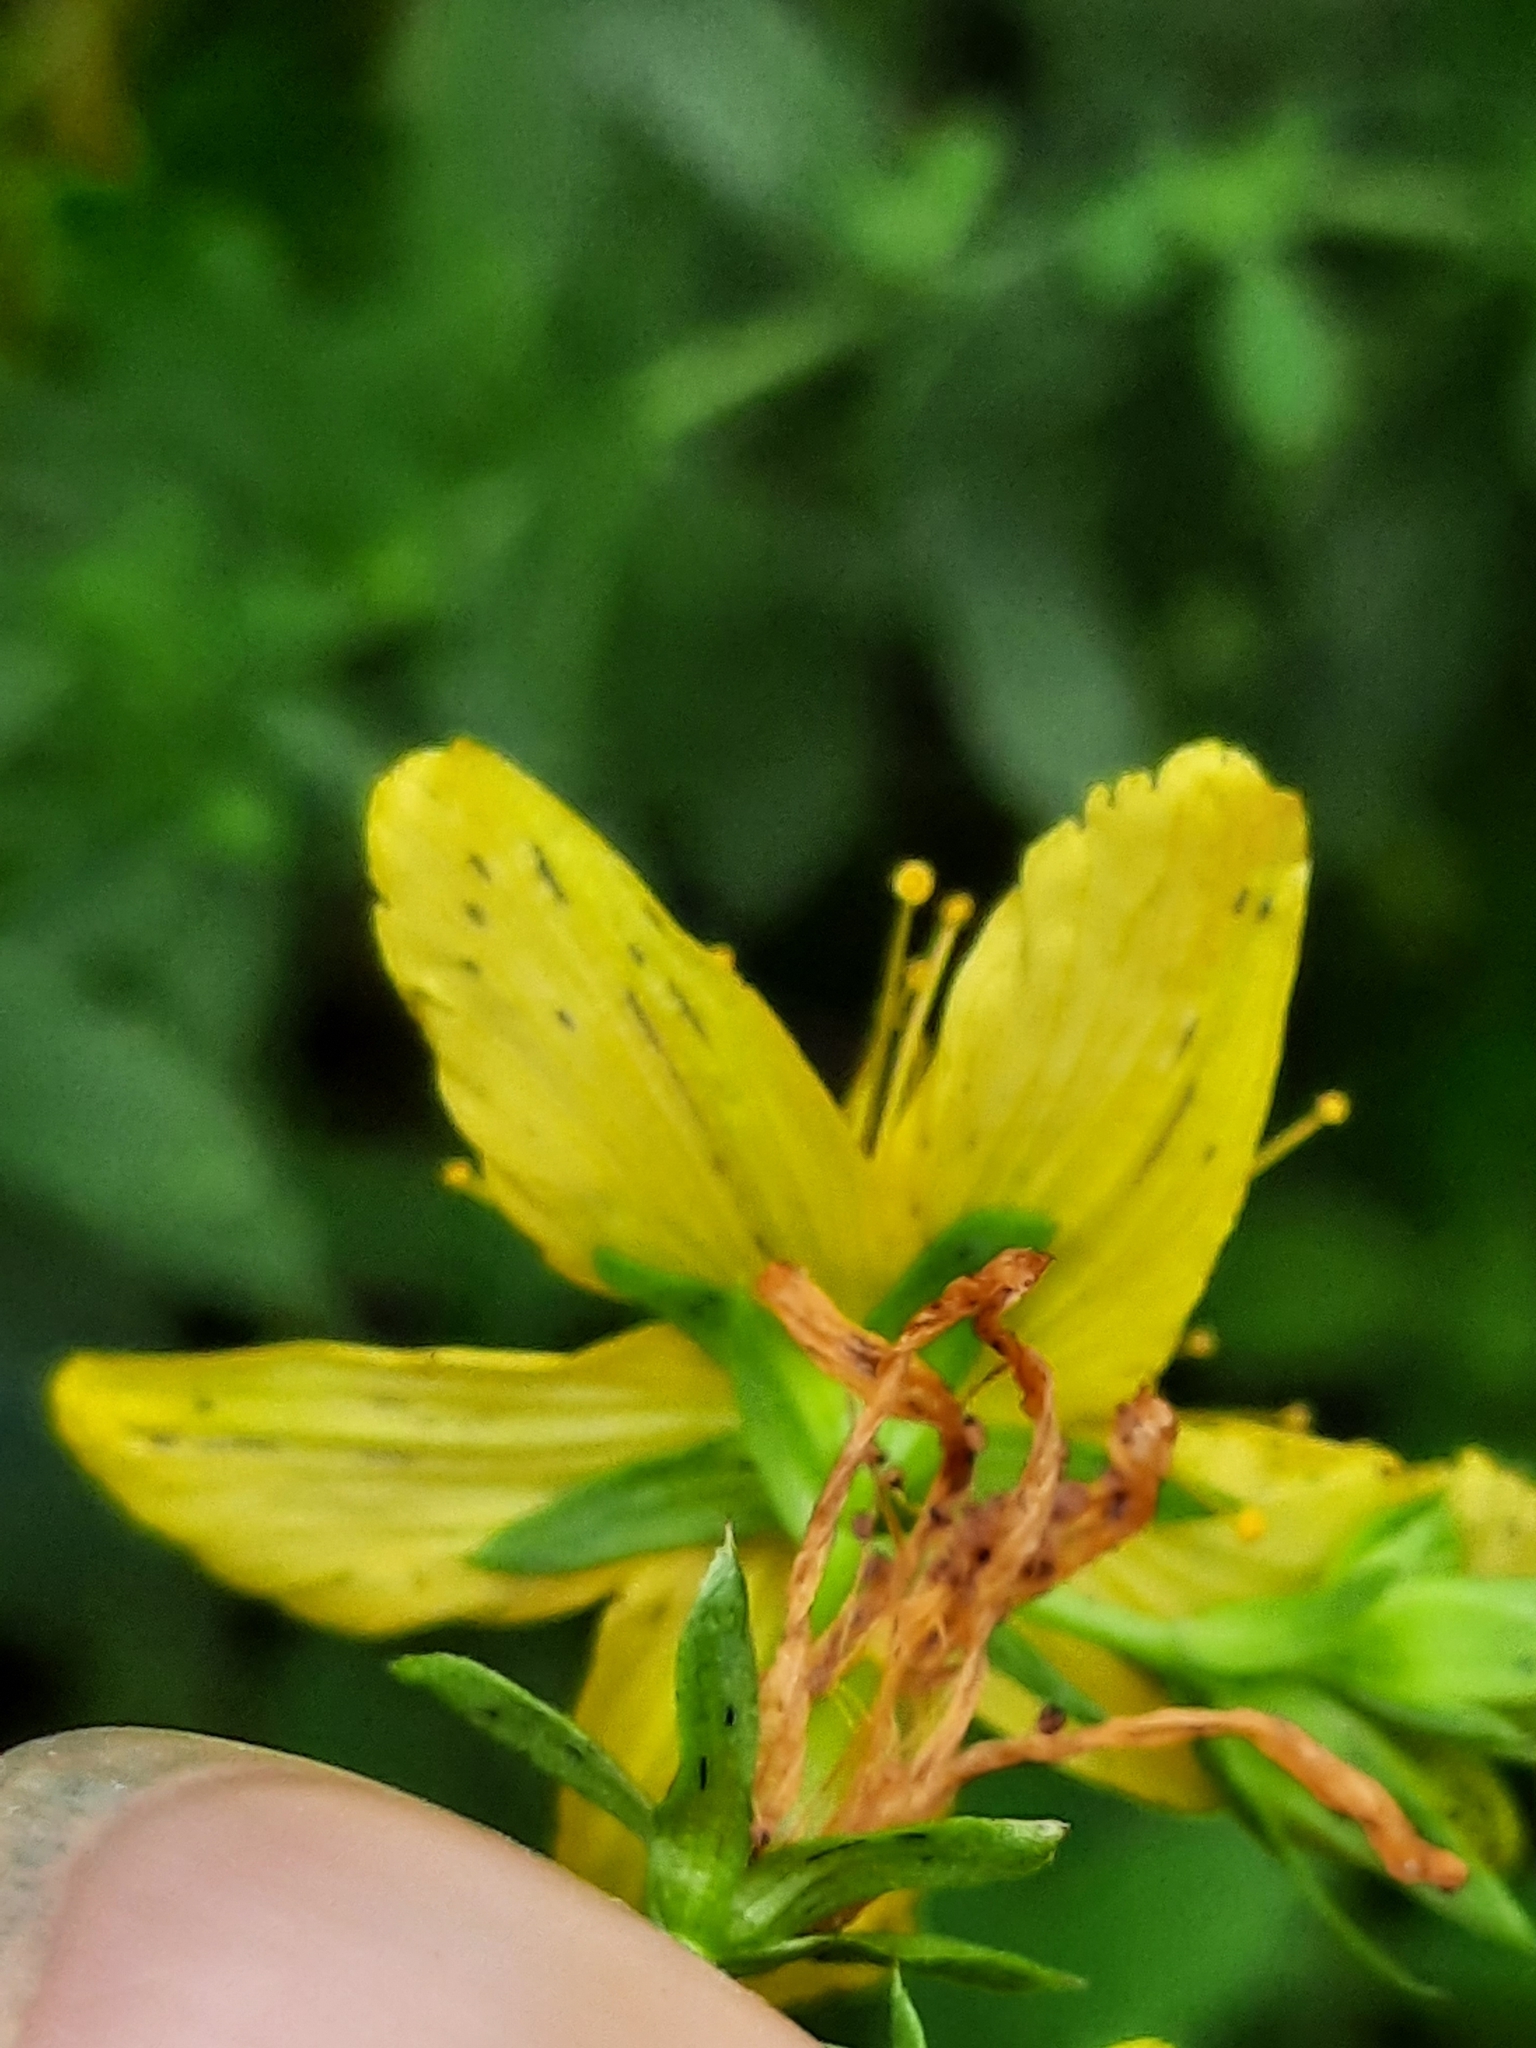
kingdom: Plantae
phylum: Tracheophyta
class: Magnoliopsida
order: Malpighiales
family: Hypericaceae
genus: Hypericum
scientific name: Hypericum perforatum
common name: Common st. johnswort
